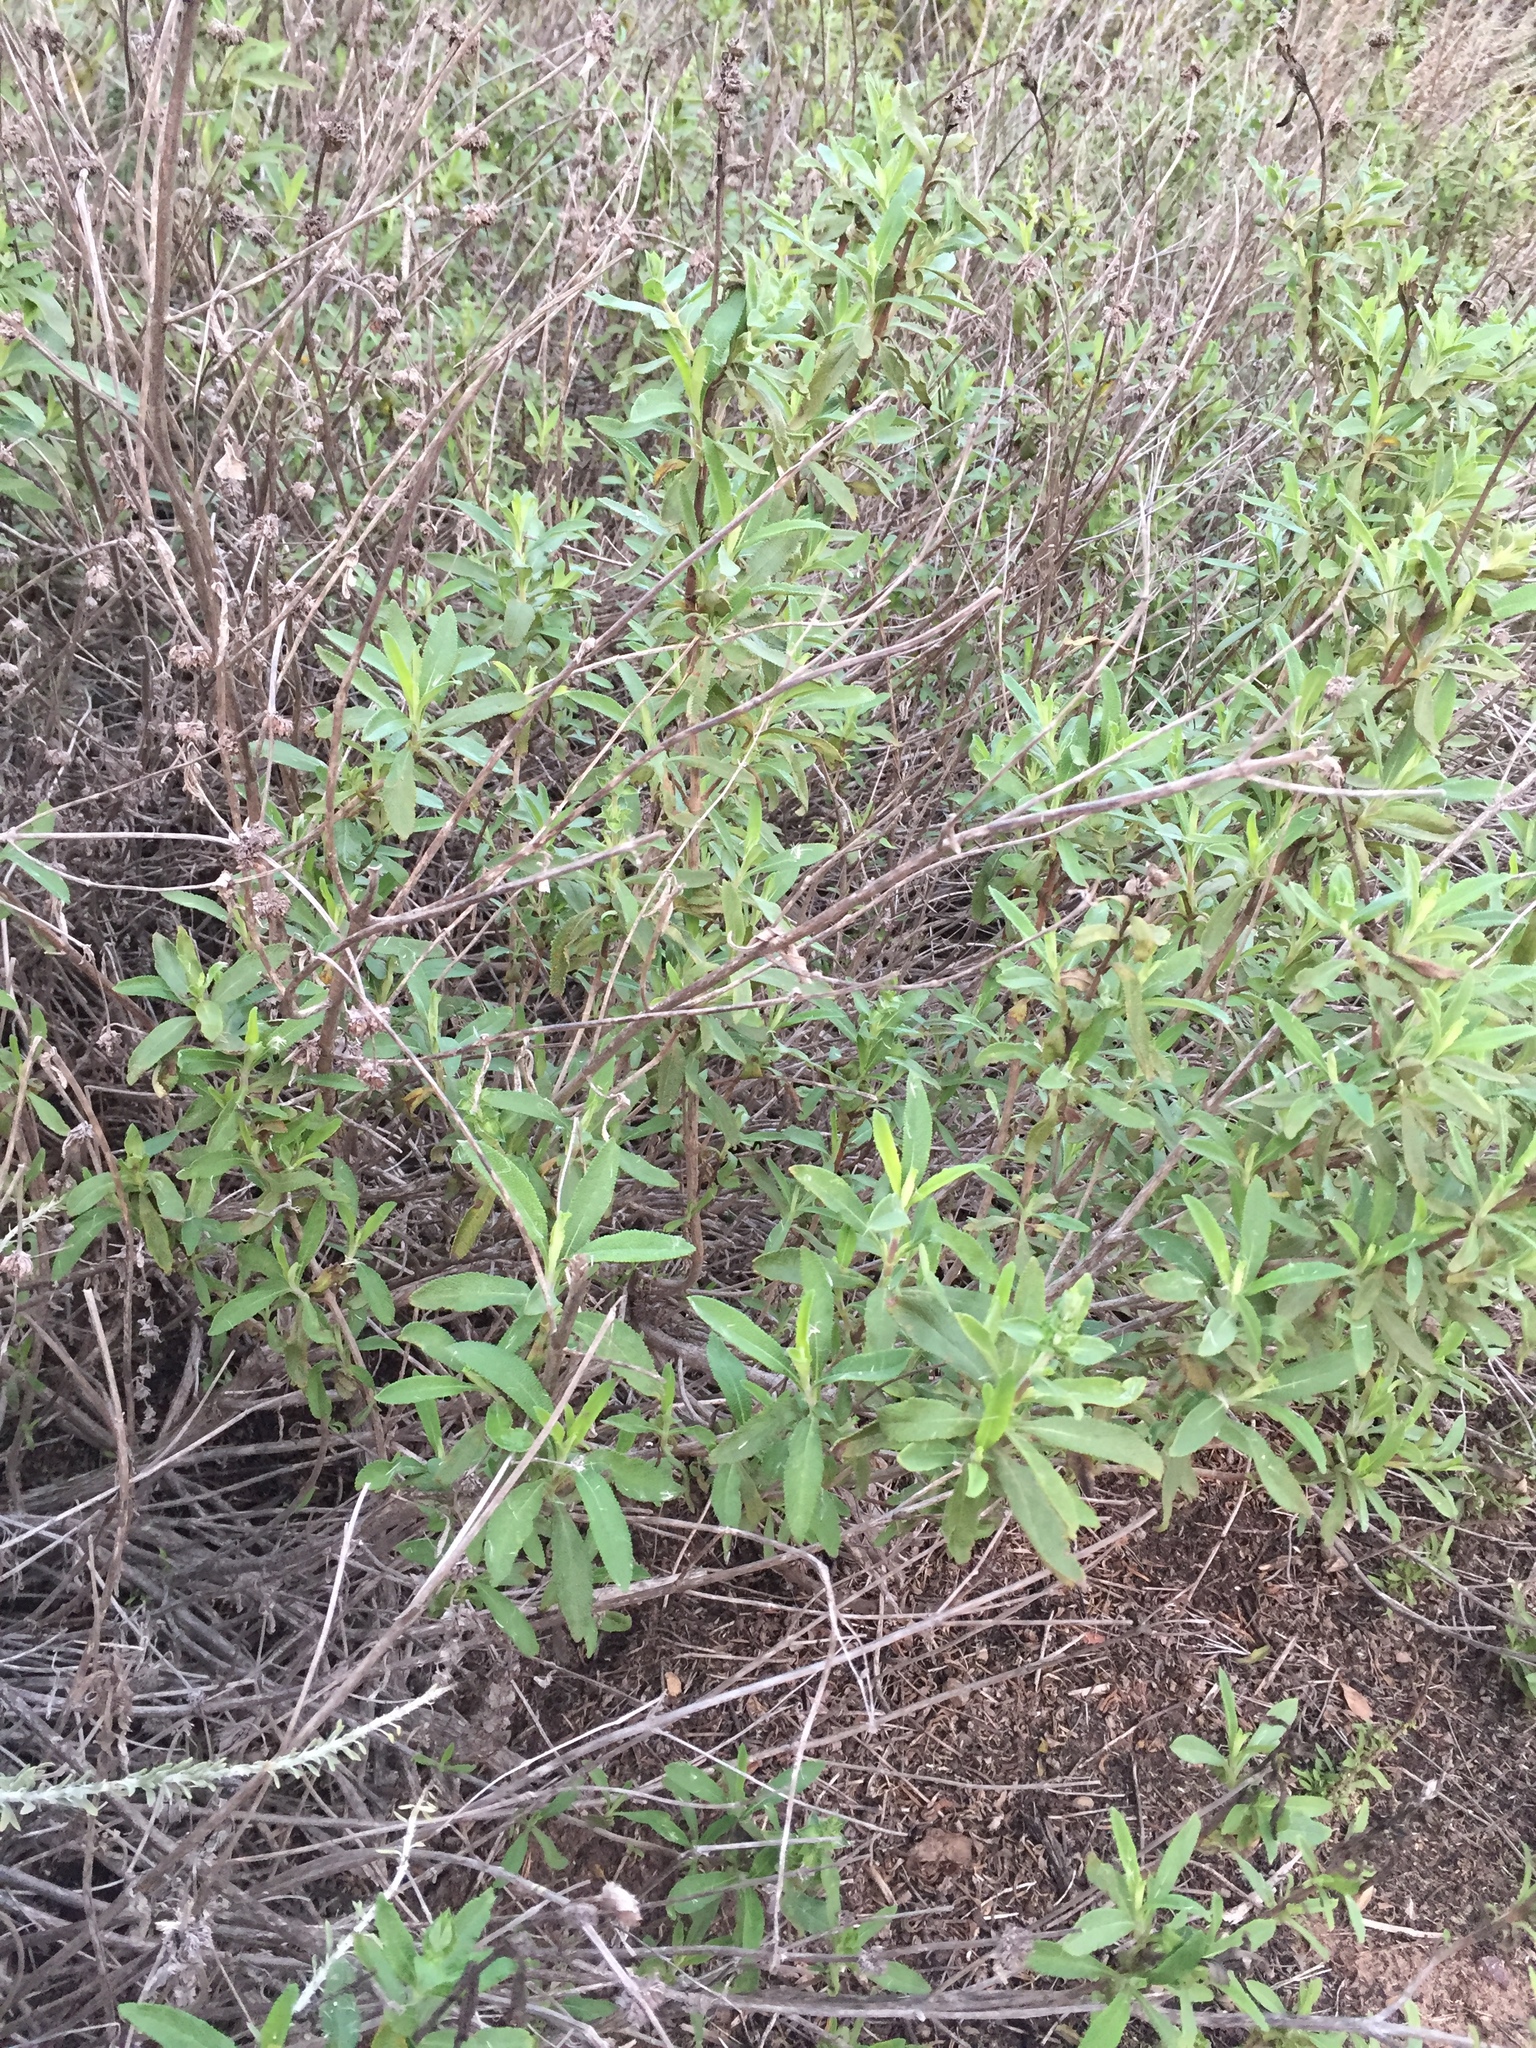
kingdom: Plantae
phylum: Tracheophyta
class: Magnoliopsida
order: Asterales
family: Asteraceae
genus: Encelia
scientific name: Encelia californica
